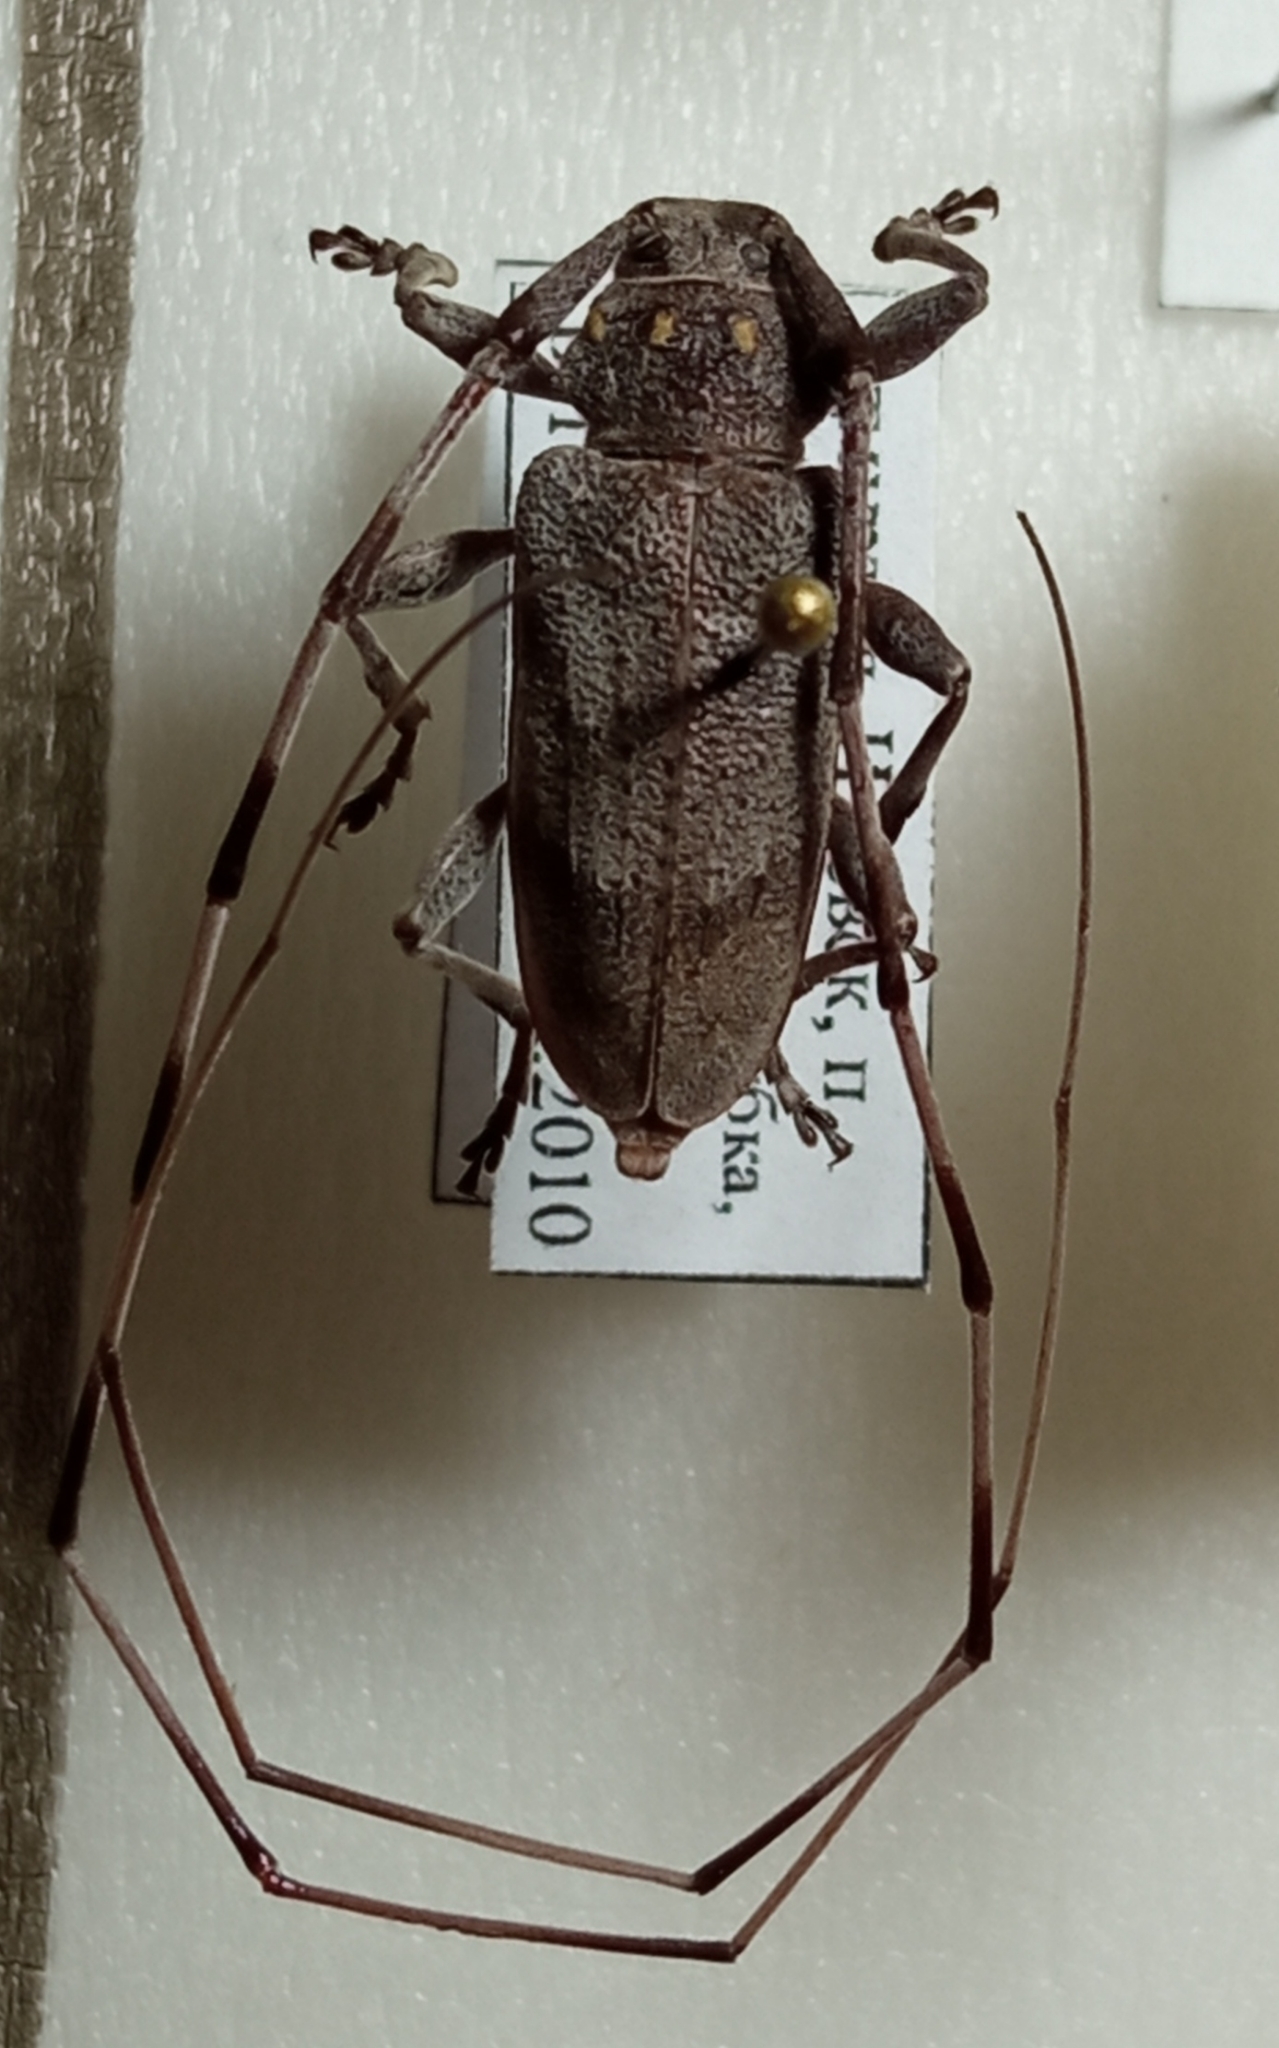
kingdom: Animalia
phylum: Arthropoda
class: Insecta
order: Coleoptera
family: Cerambycidae
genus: Acanthocinus
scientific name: Acanthocinus aedilis
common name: Timberman beetle
